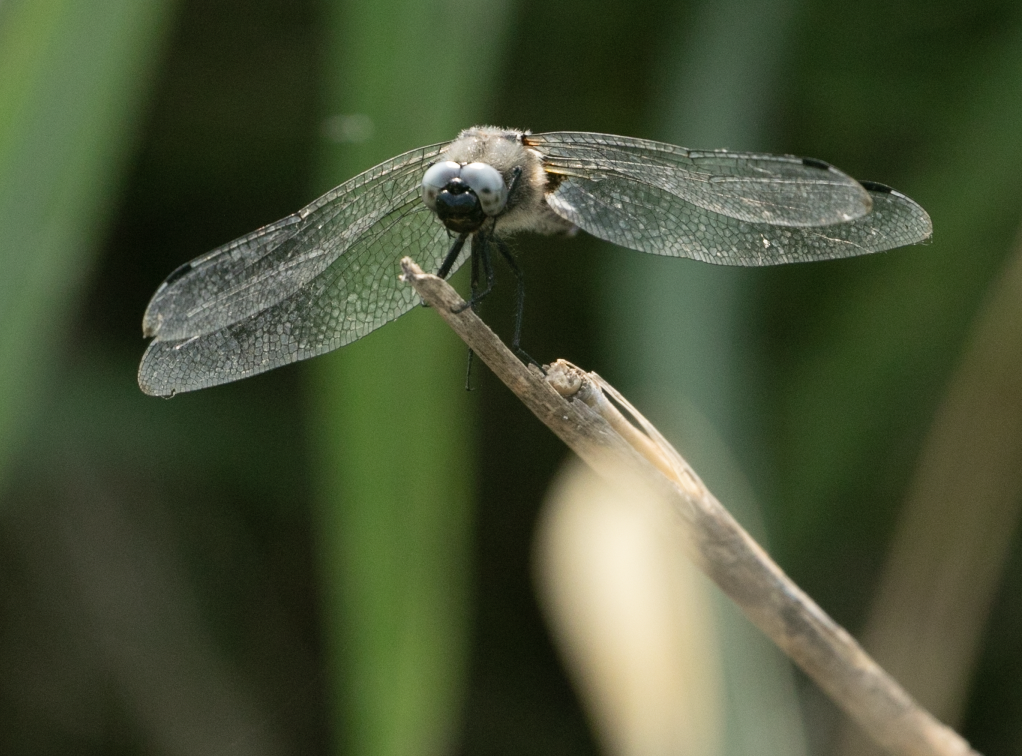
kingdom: Animalia
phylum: Arthropoda
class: Insecta
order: Odonata
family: Libellulidae
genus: Libellula
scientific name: Libellula fulva
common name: Blue chaser
